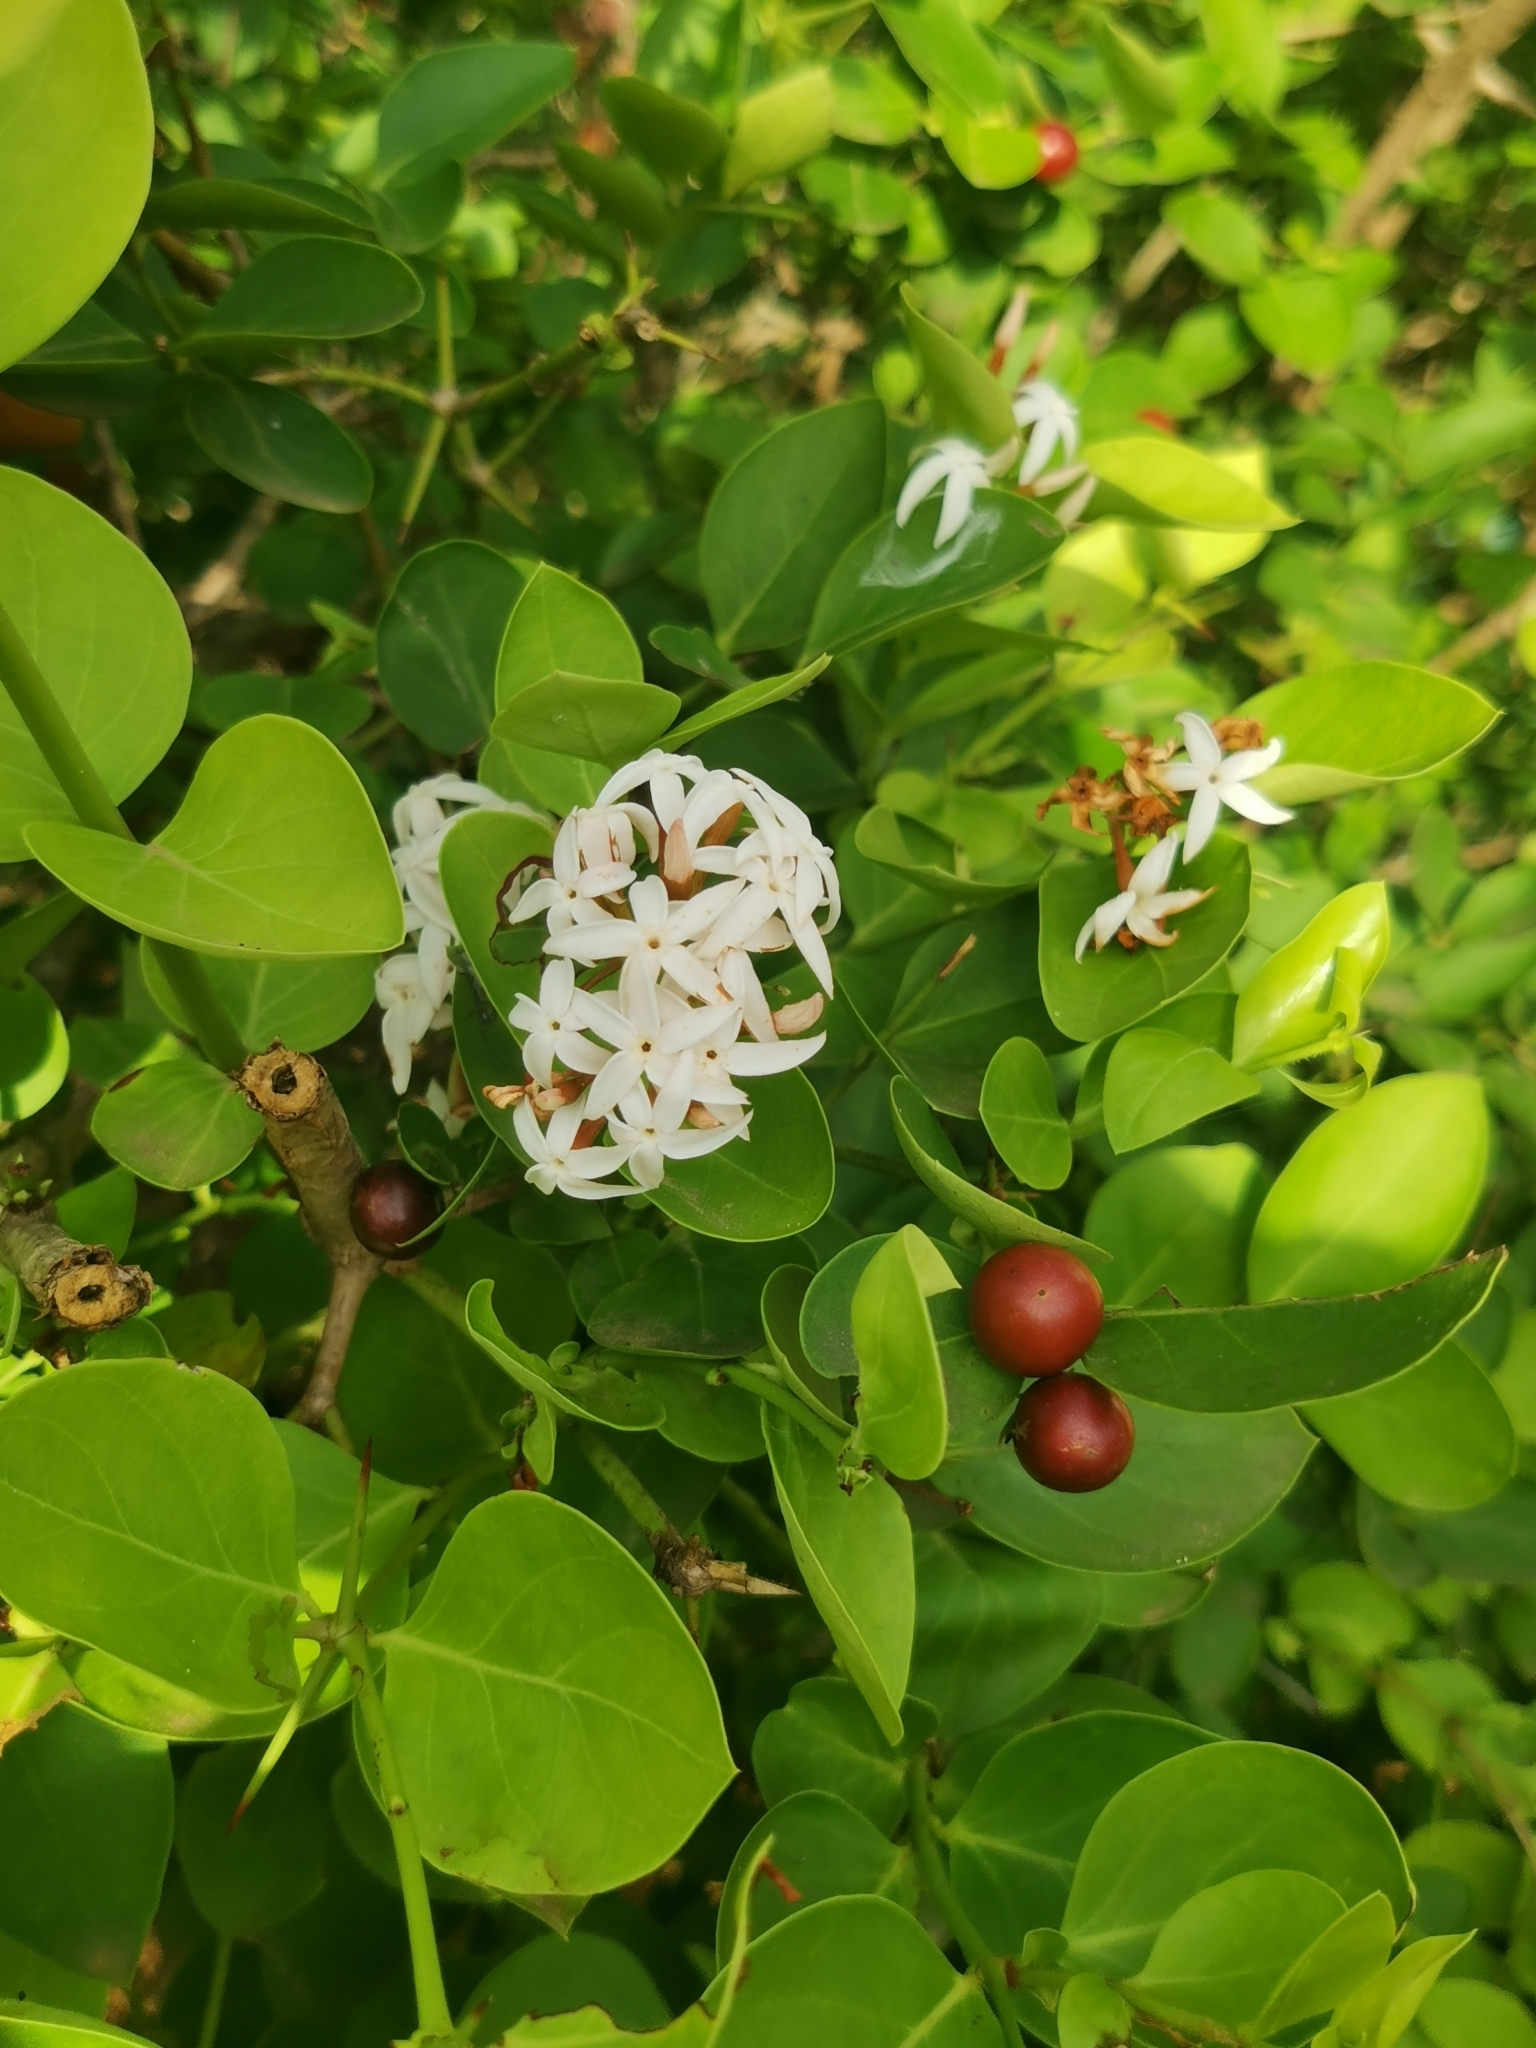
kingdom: Plantae
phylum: Tracheophyta
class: Magnoliopsida
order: Gentianales
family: Apocynaceae
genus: Carissa
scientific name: Carissa spinarum
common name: Egyptian carissa
